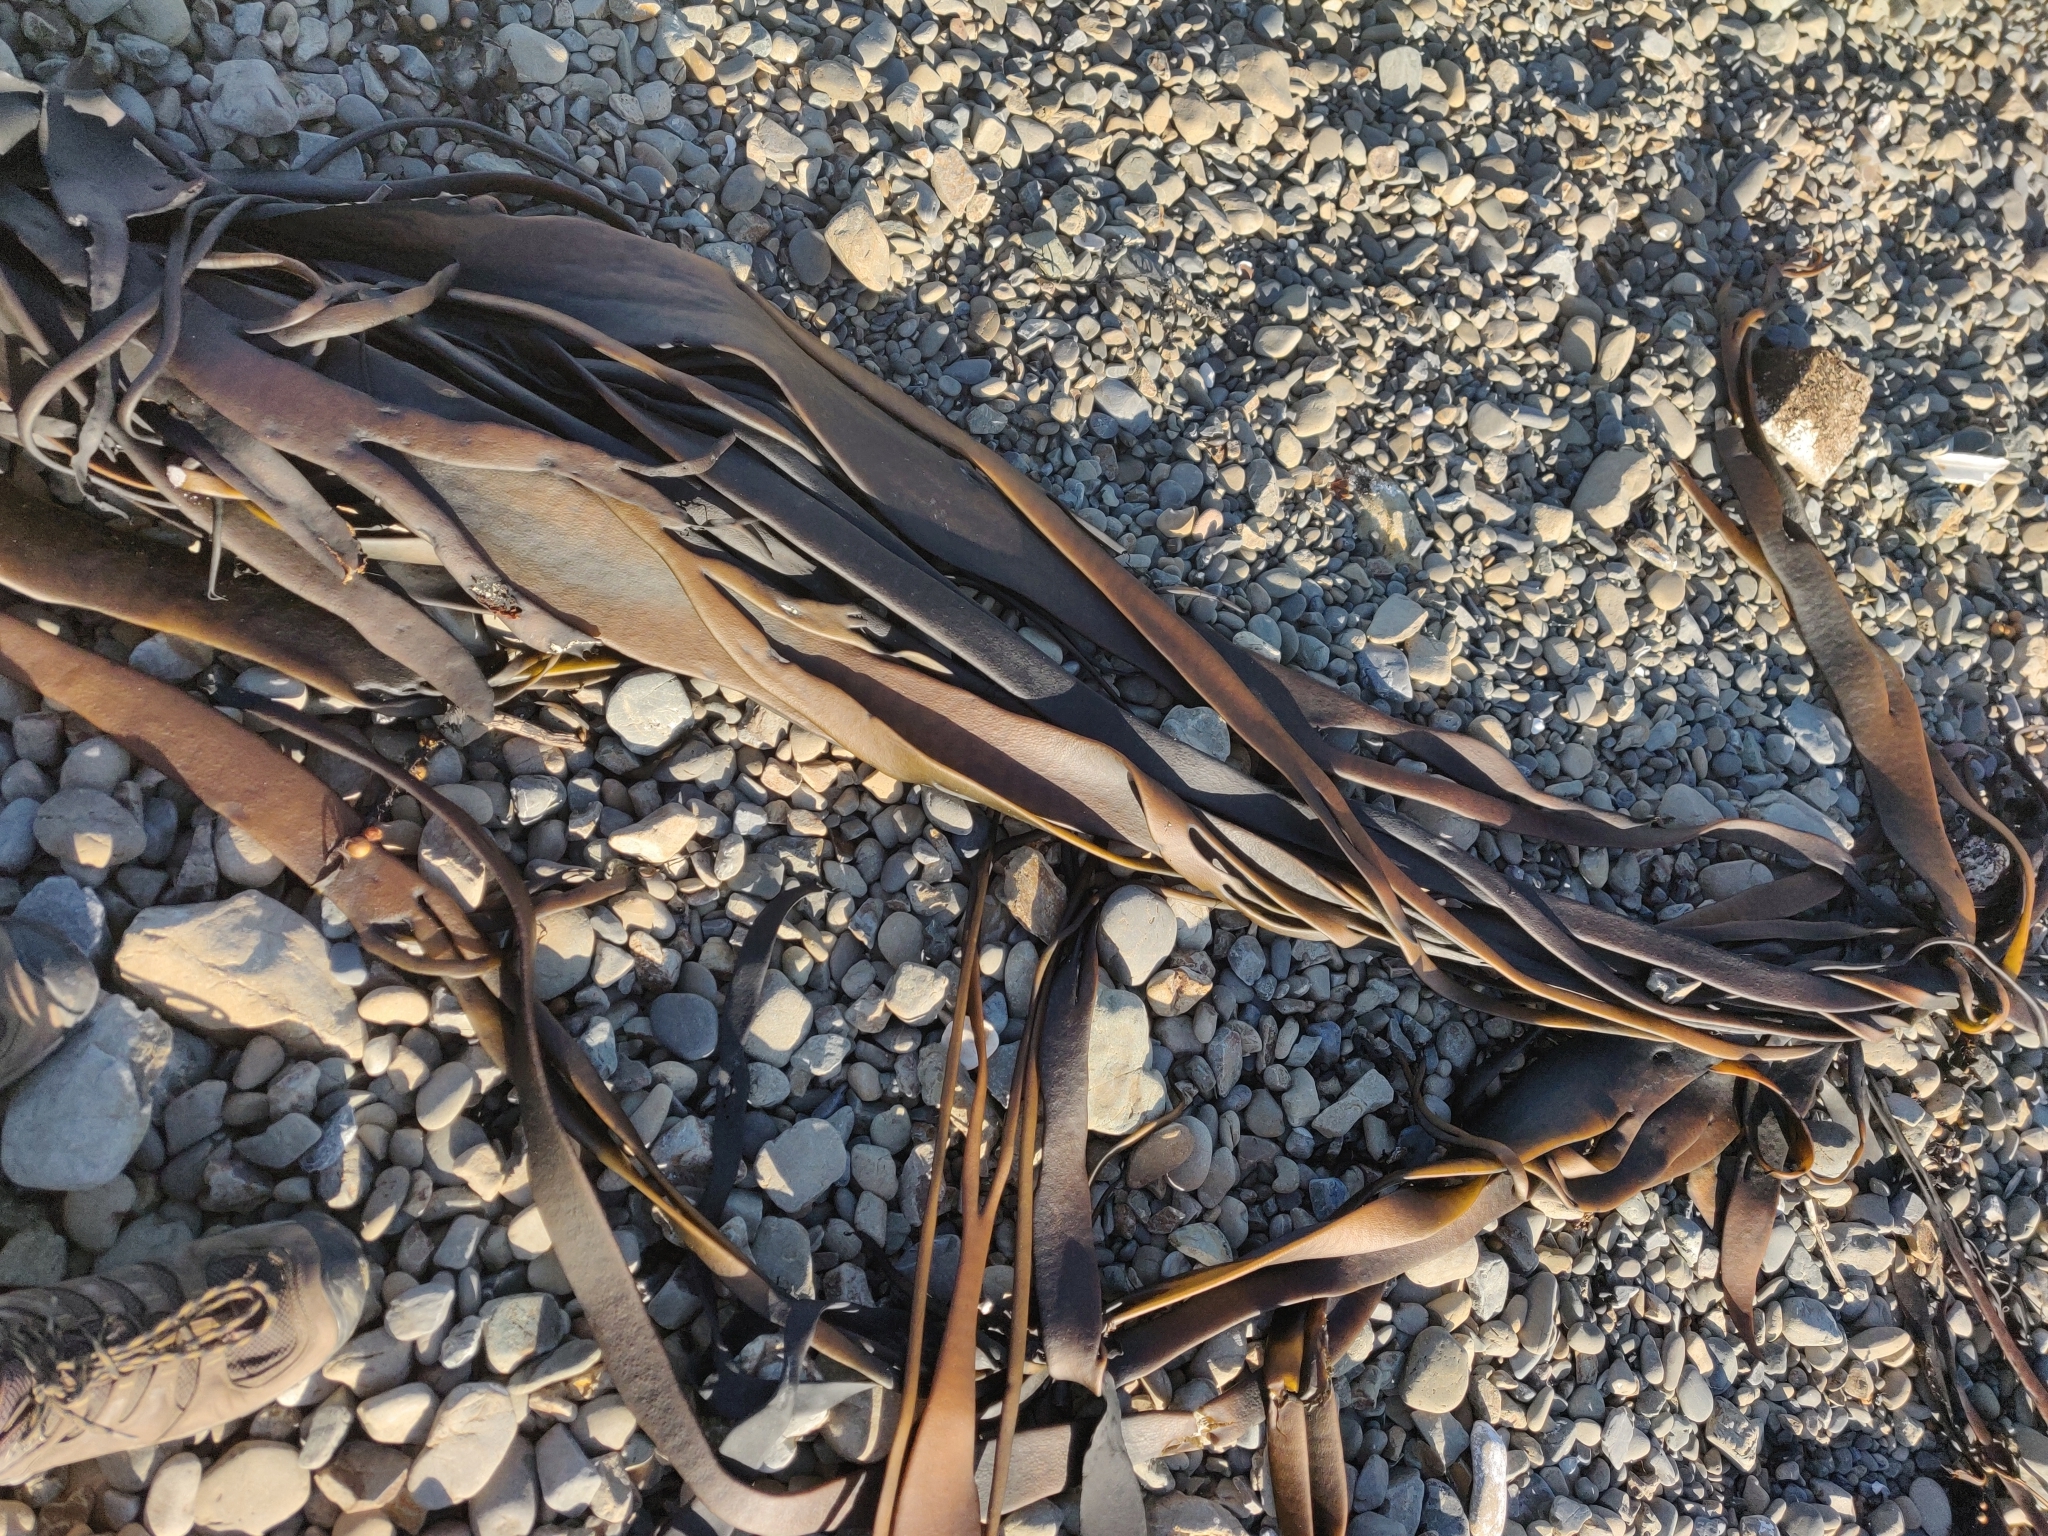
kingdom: Chromista
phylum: Ochrophyta
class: Phaeophyceae
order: Fucales
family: Durvillaeaceae
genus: Durvillaea
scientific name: Durvillaea antarctica
